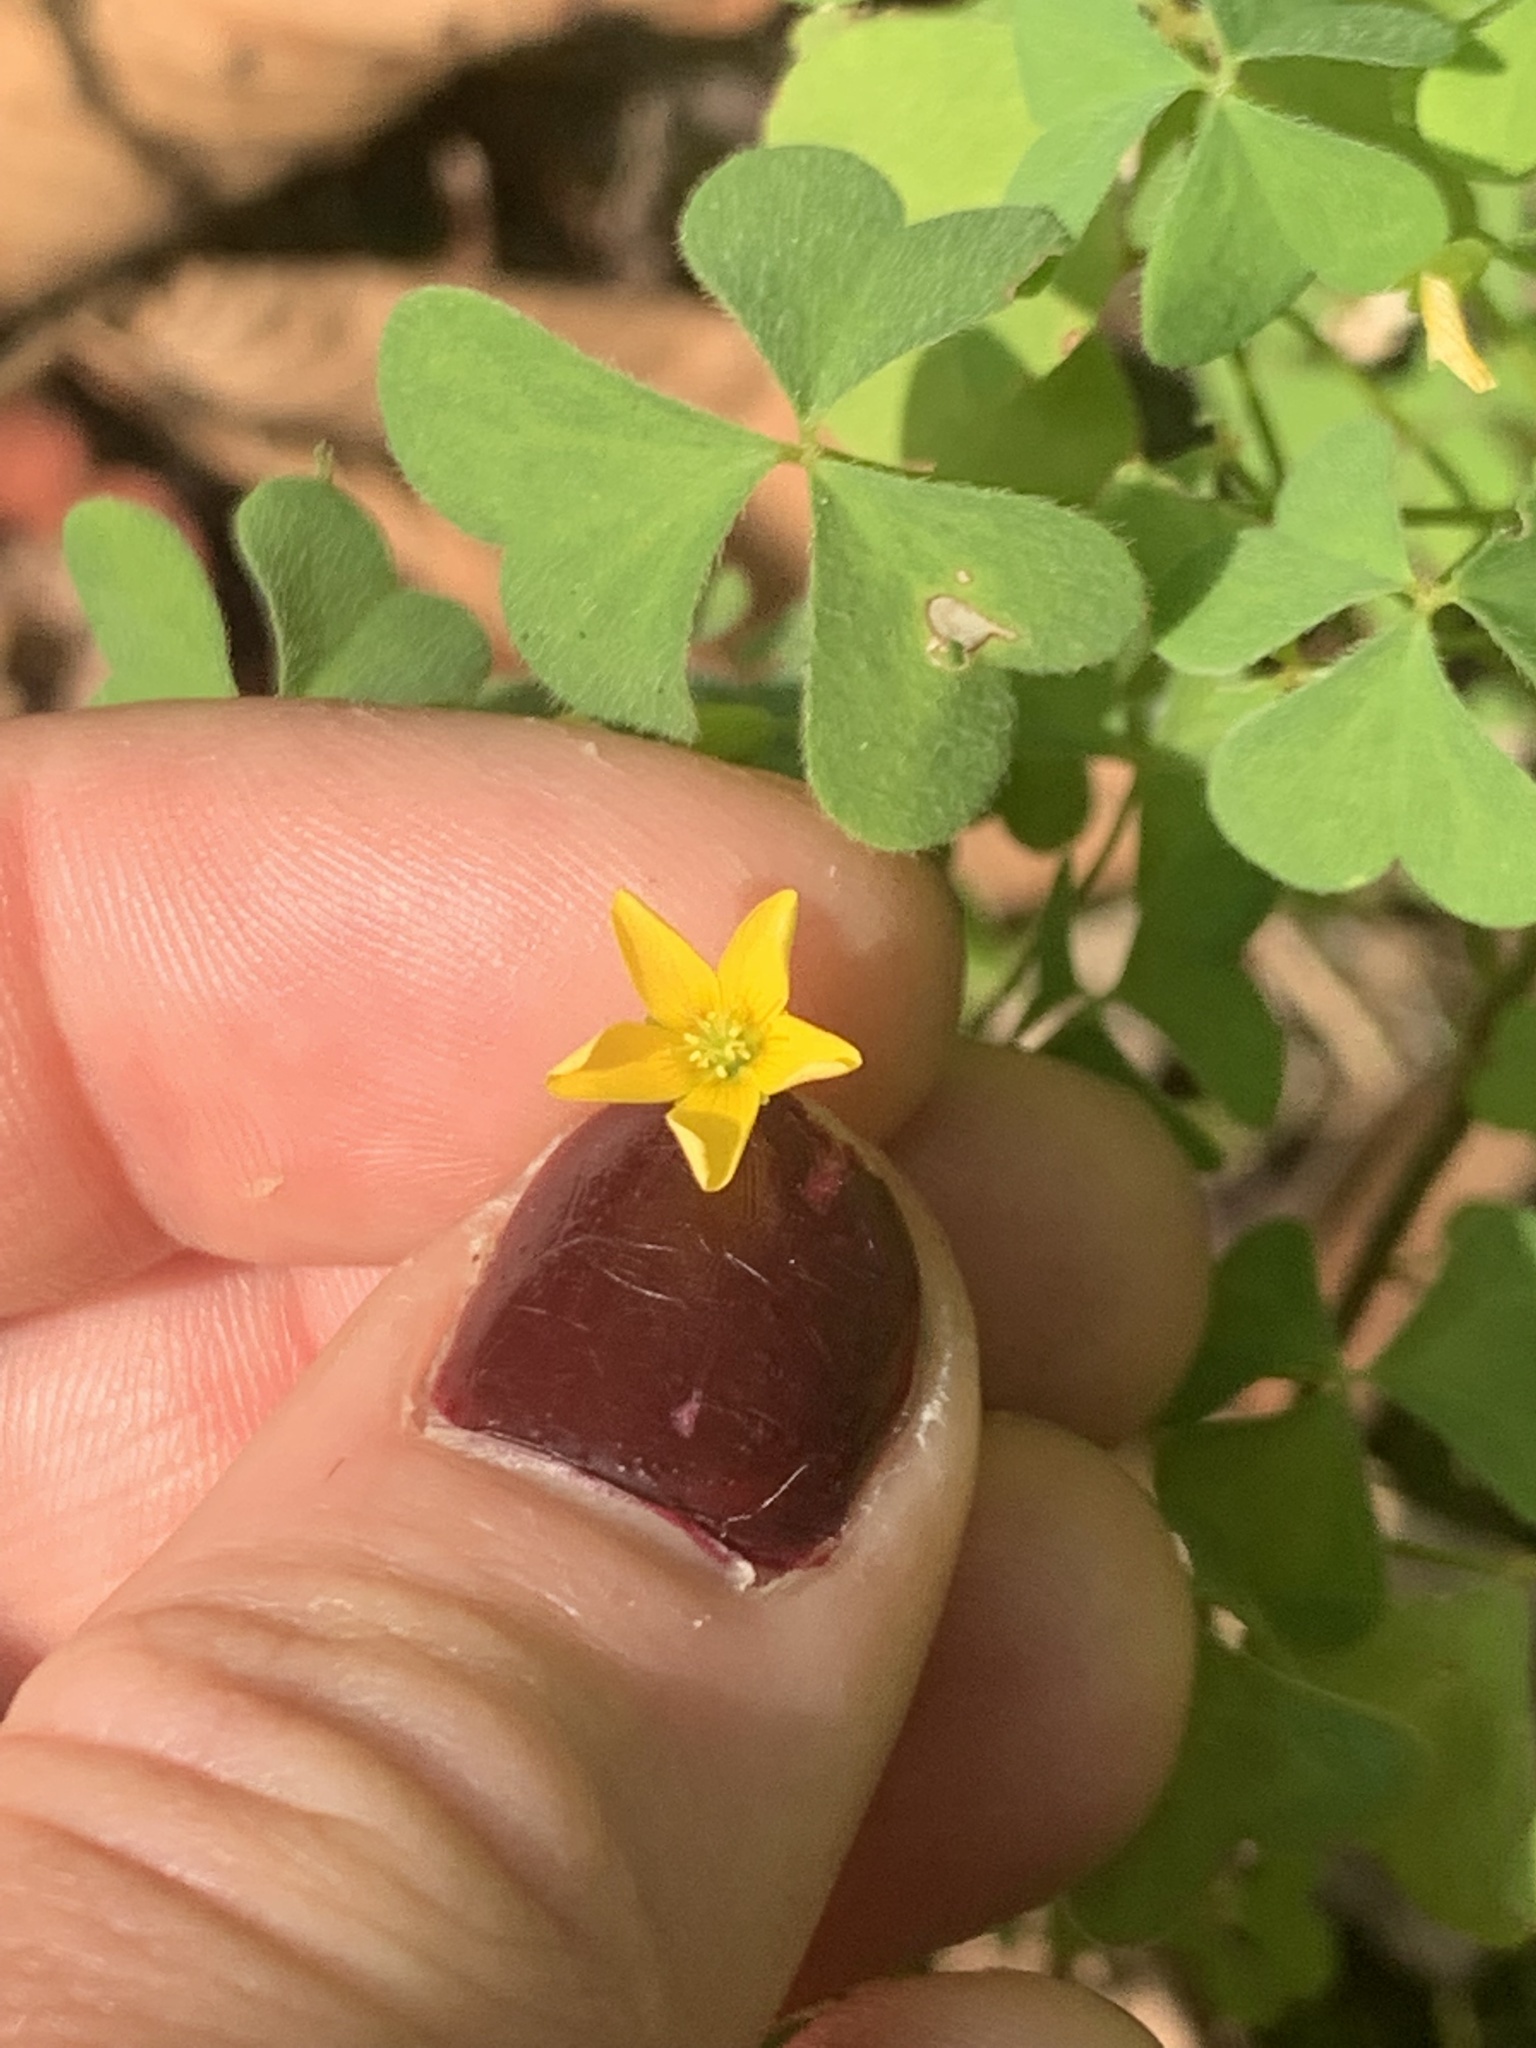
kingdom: Plantae
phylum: Tracheophyta
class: Magnoliopsida
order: Oxalidales
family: Oxalidaceae
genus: Oxalis
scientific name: Oxalis stricta
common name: Upright yellow-sorrel
